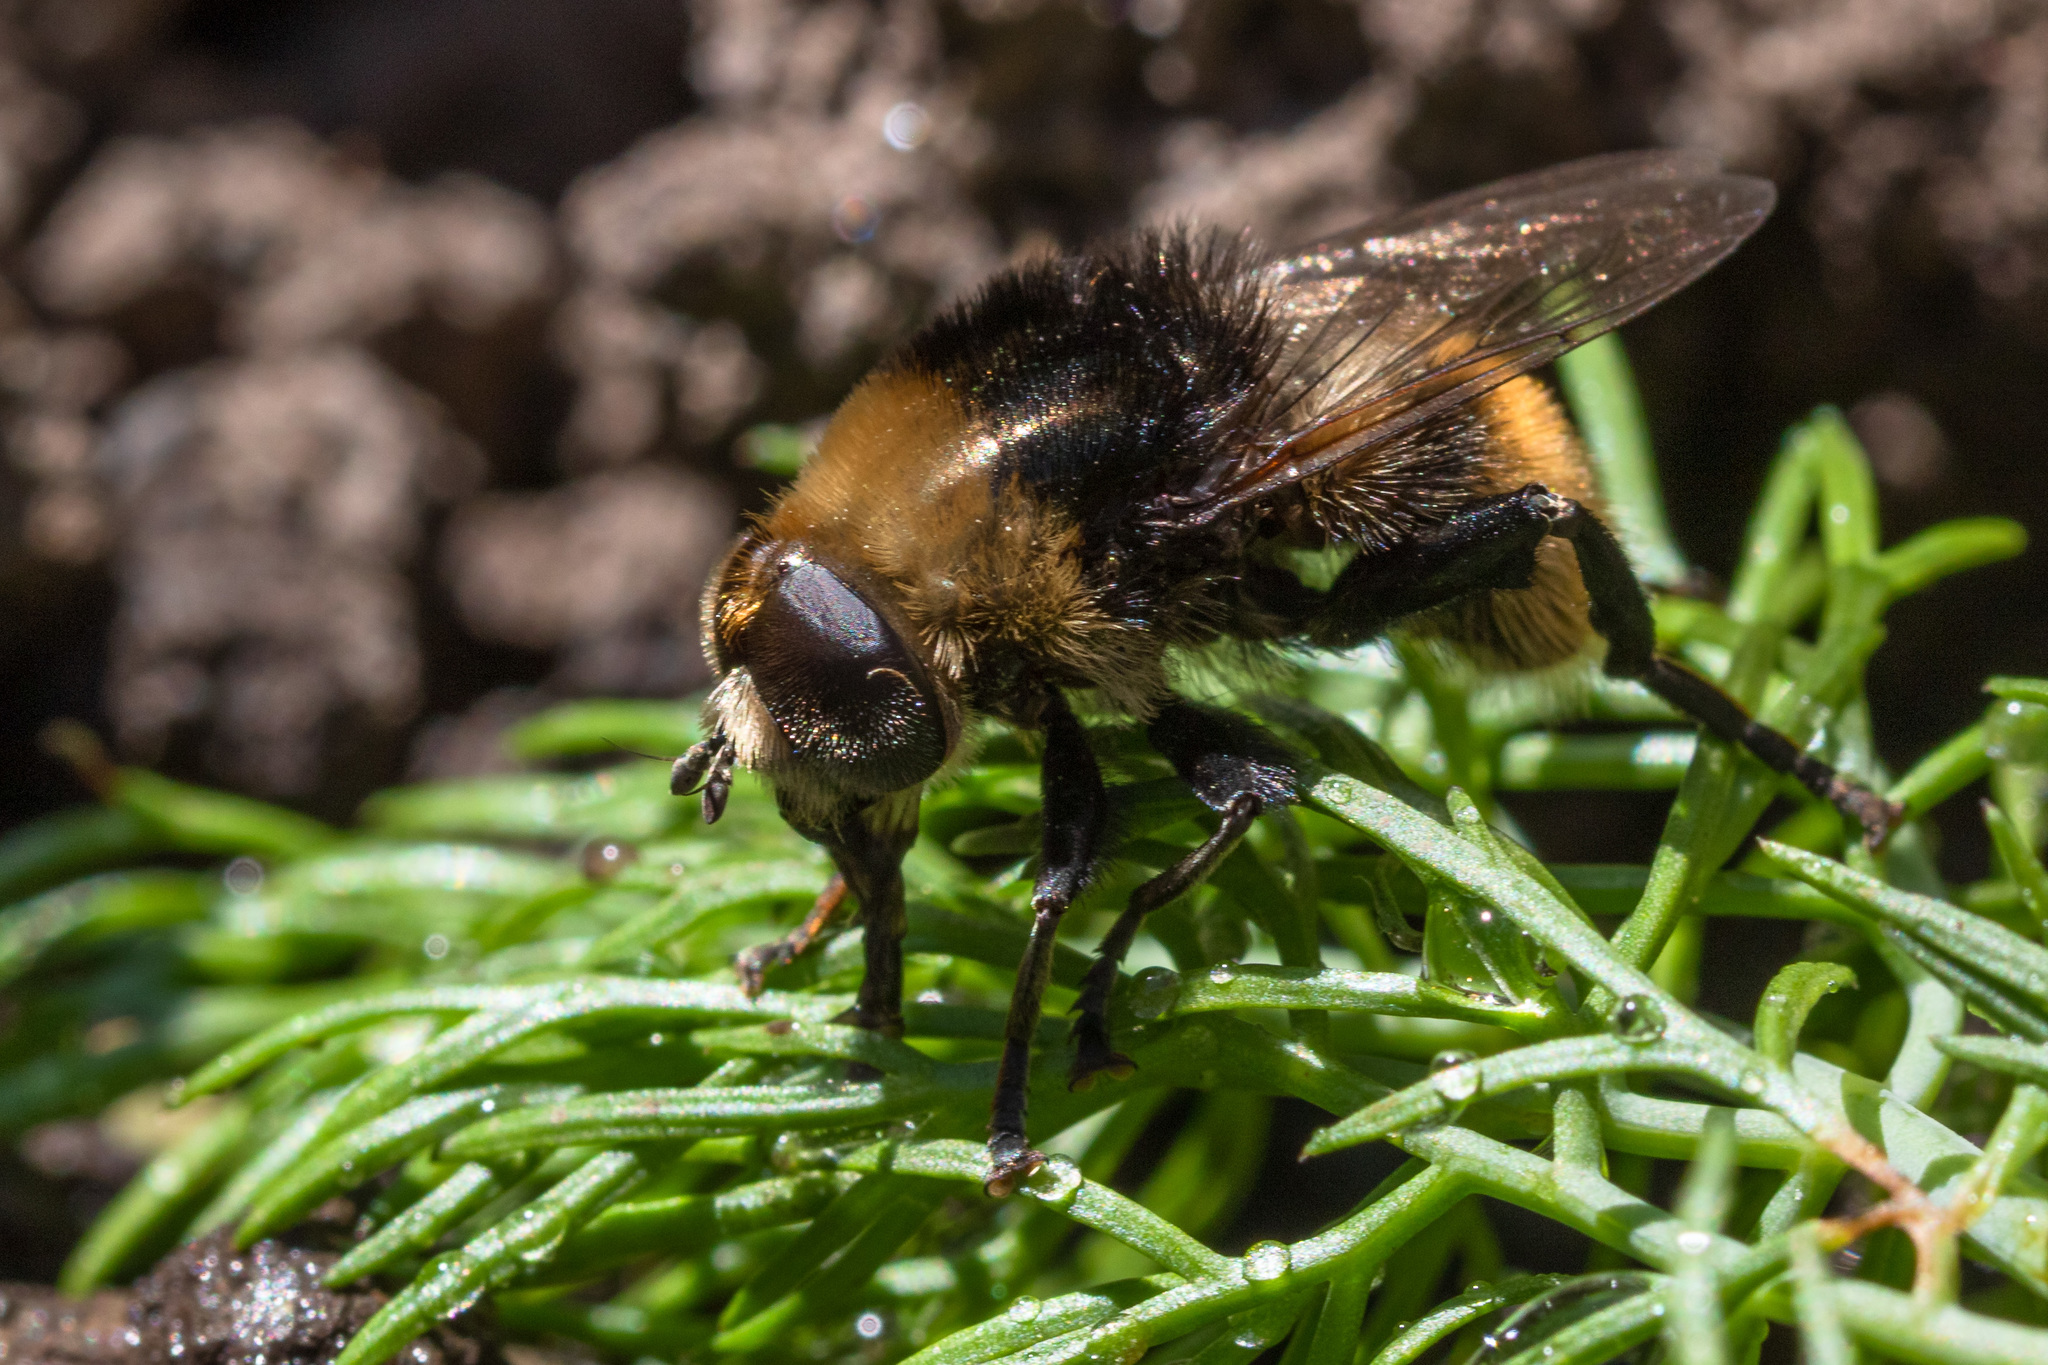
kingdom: Animalia
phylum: Arthropoda
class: Insecta
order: Diptera
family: Syrphidae
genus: Merodon
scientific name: Merodon equestris
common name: Greater bulb-fly
